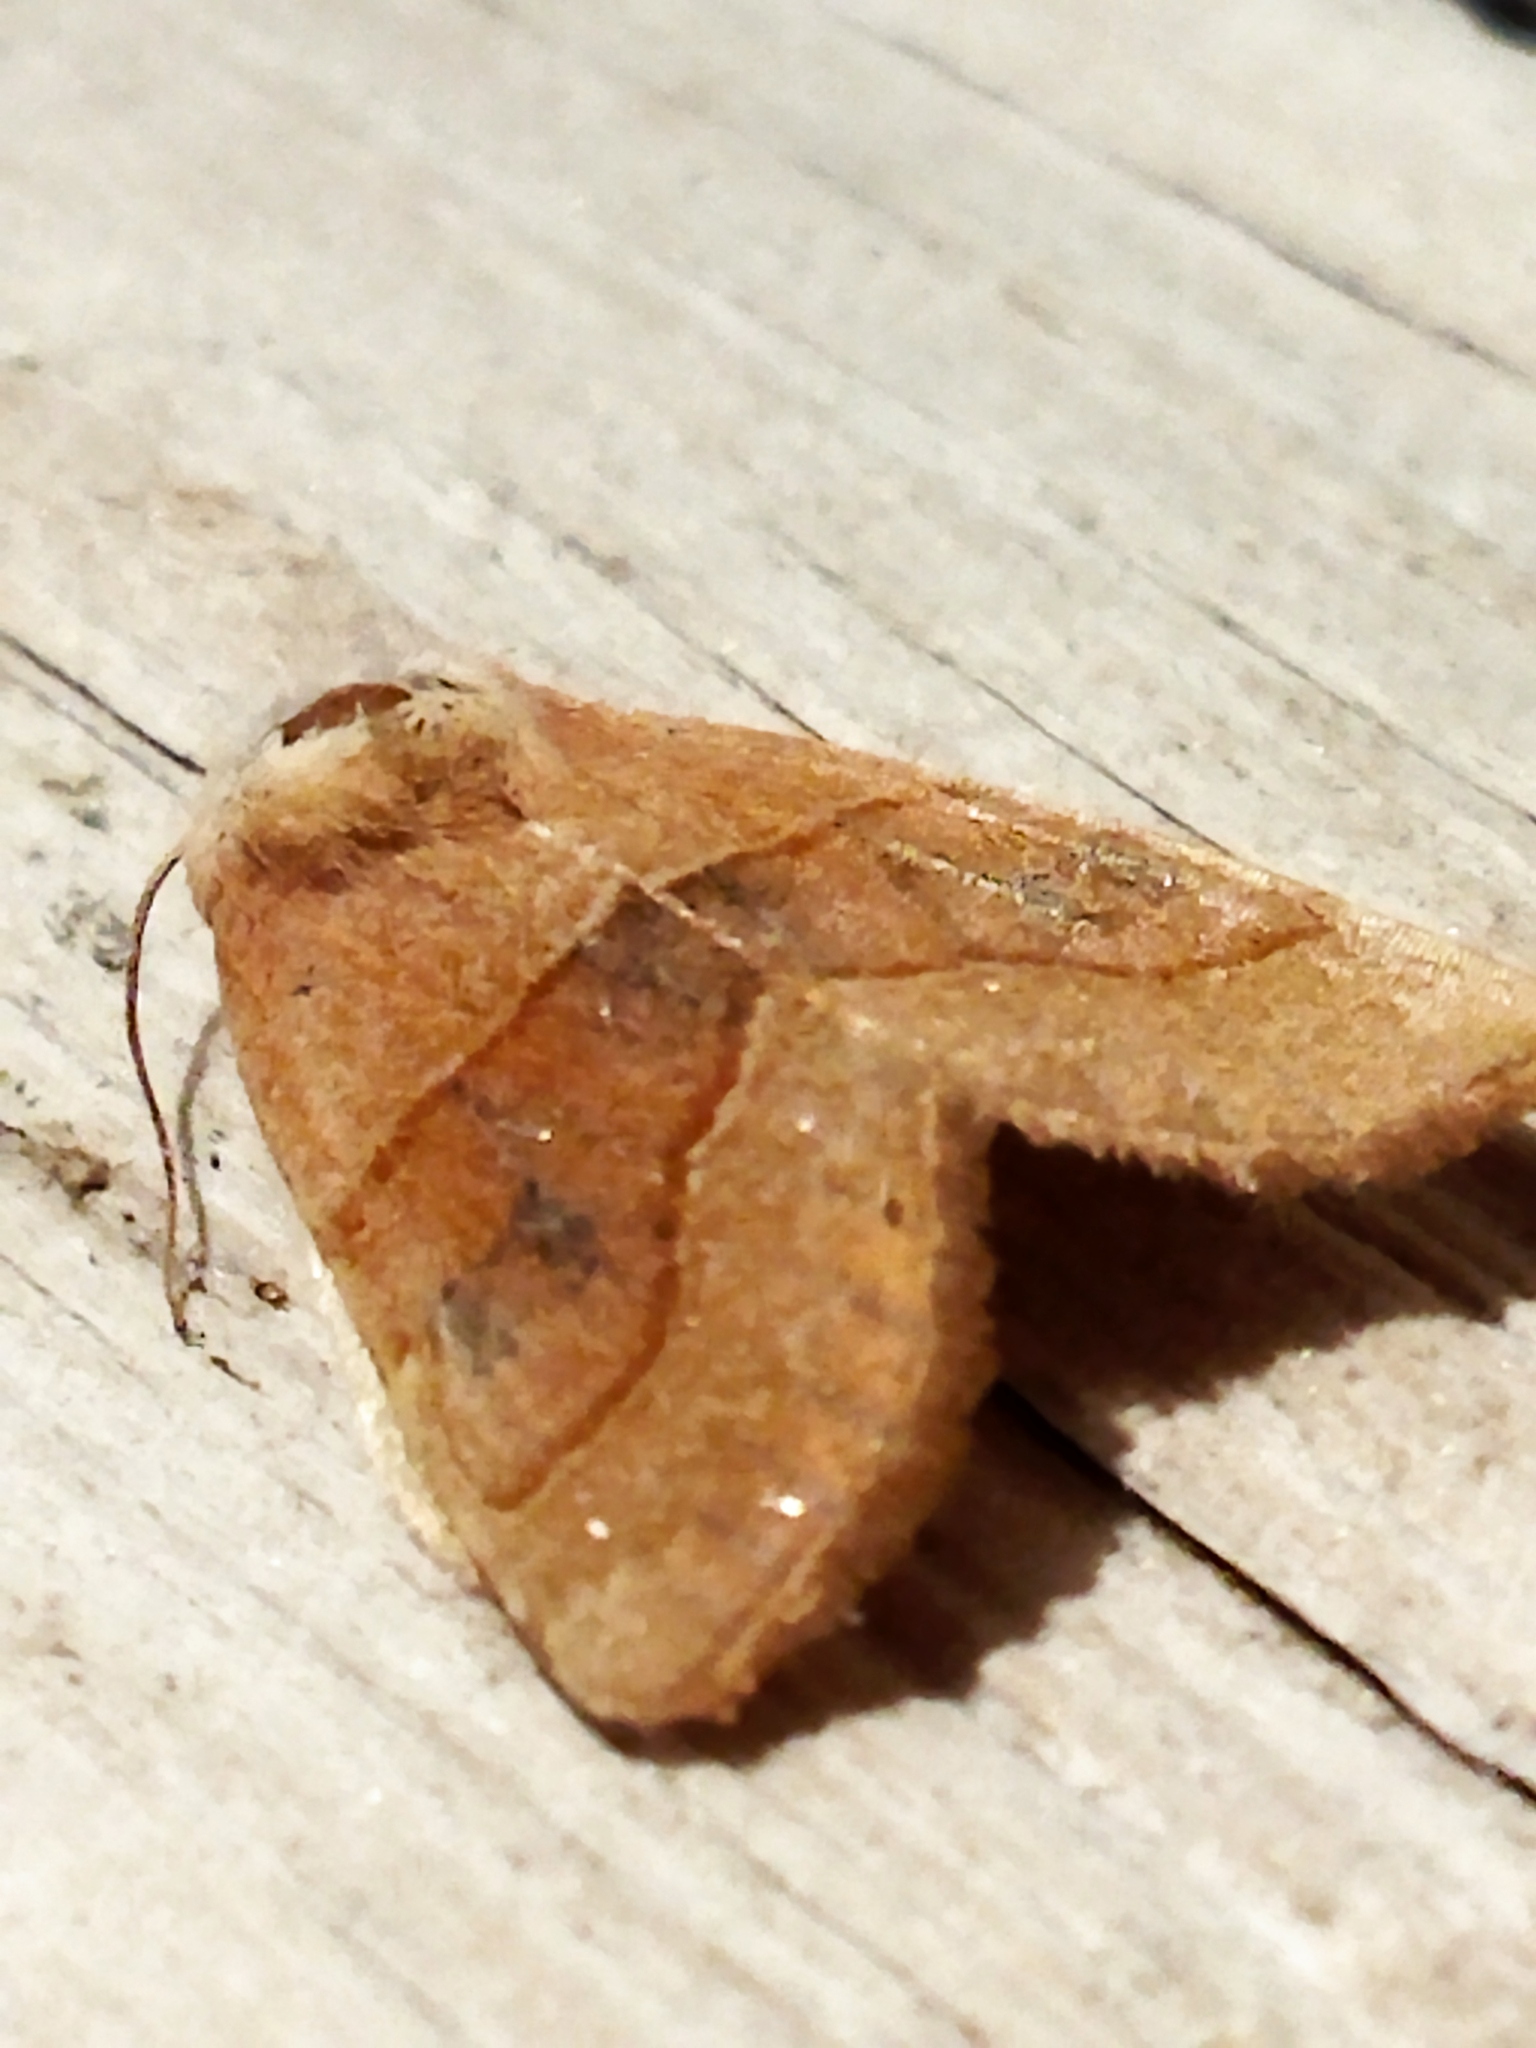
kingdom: Animalia
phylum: Arthropoda
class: Insecta
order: Lepidoptera
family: Noctuidae
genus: Atethmia
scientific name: Atethmia centrago
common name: Centre-barred sallow
